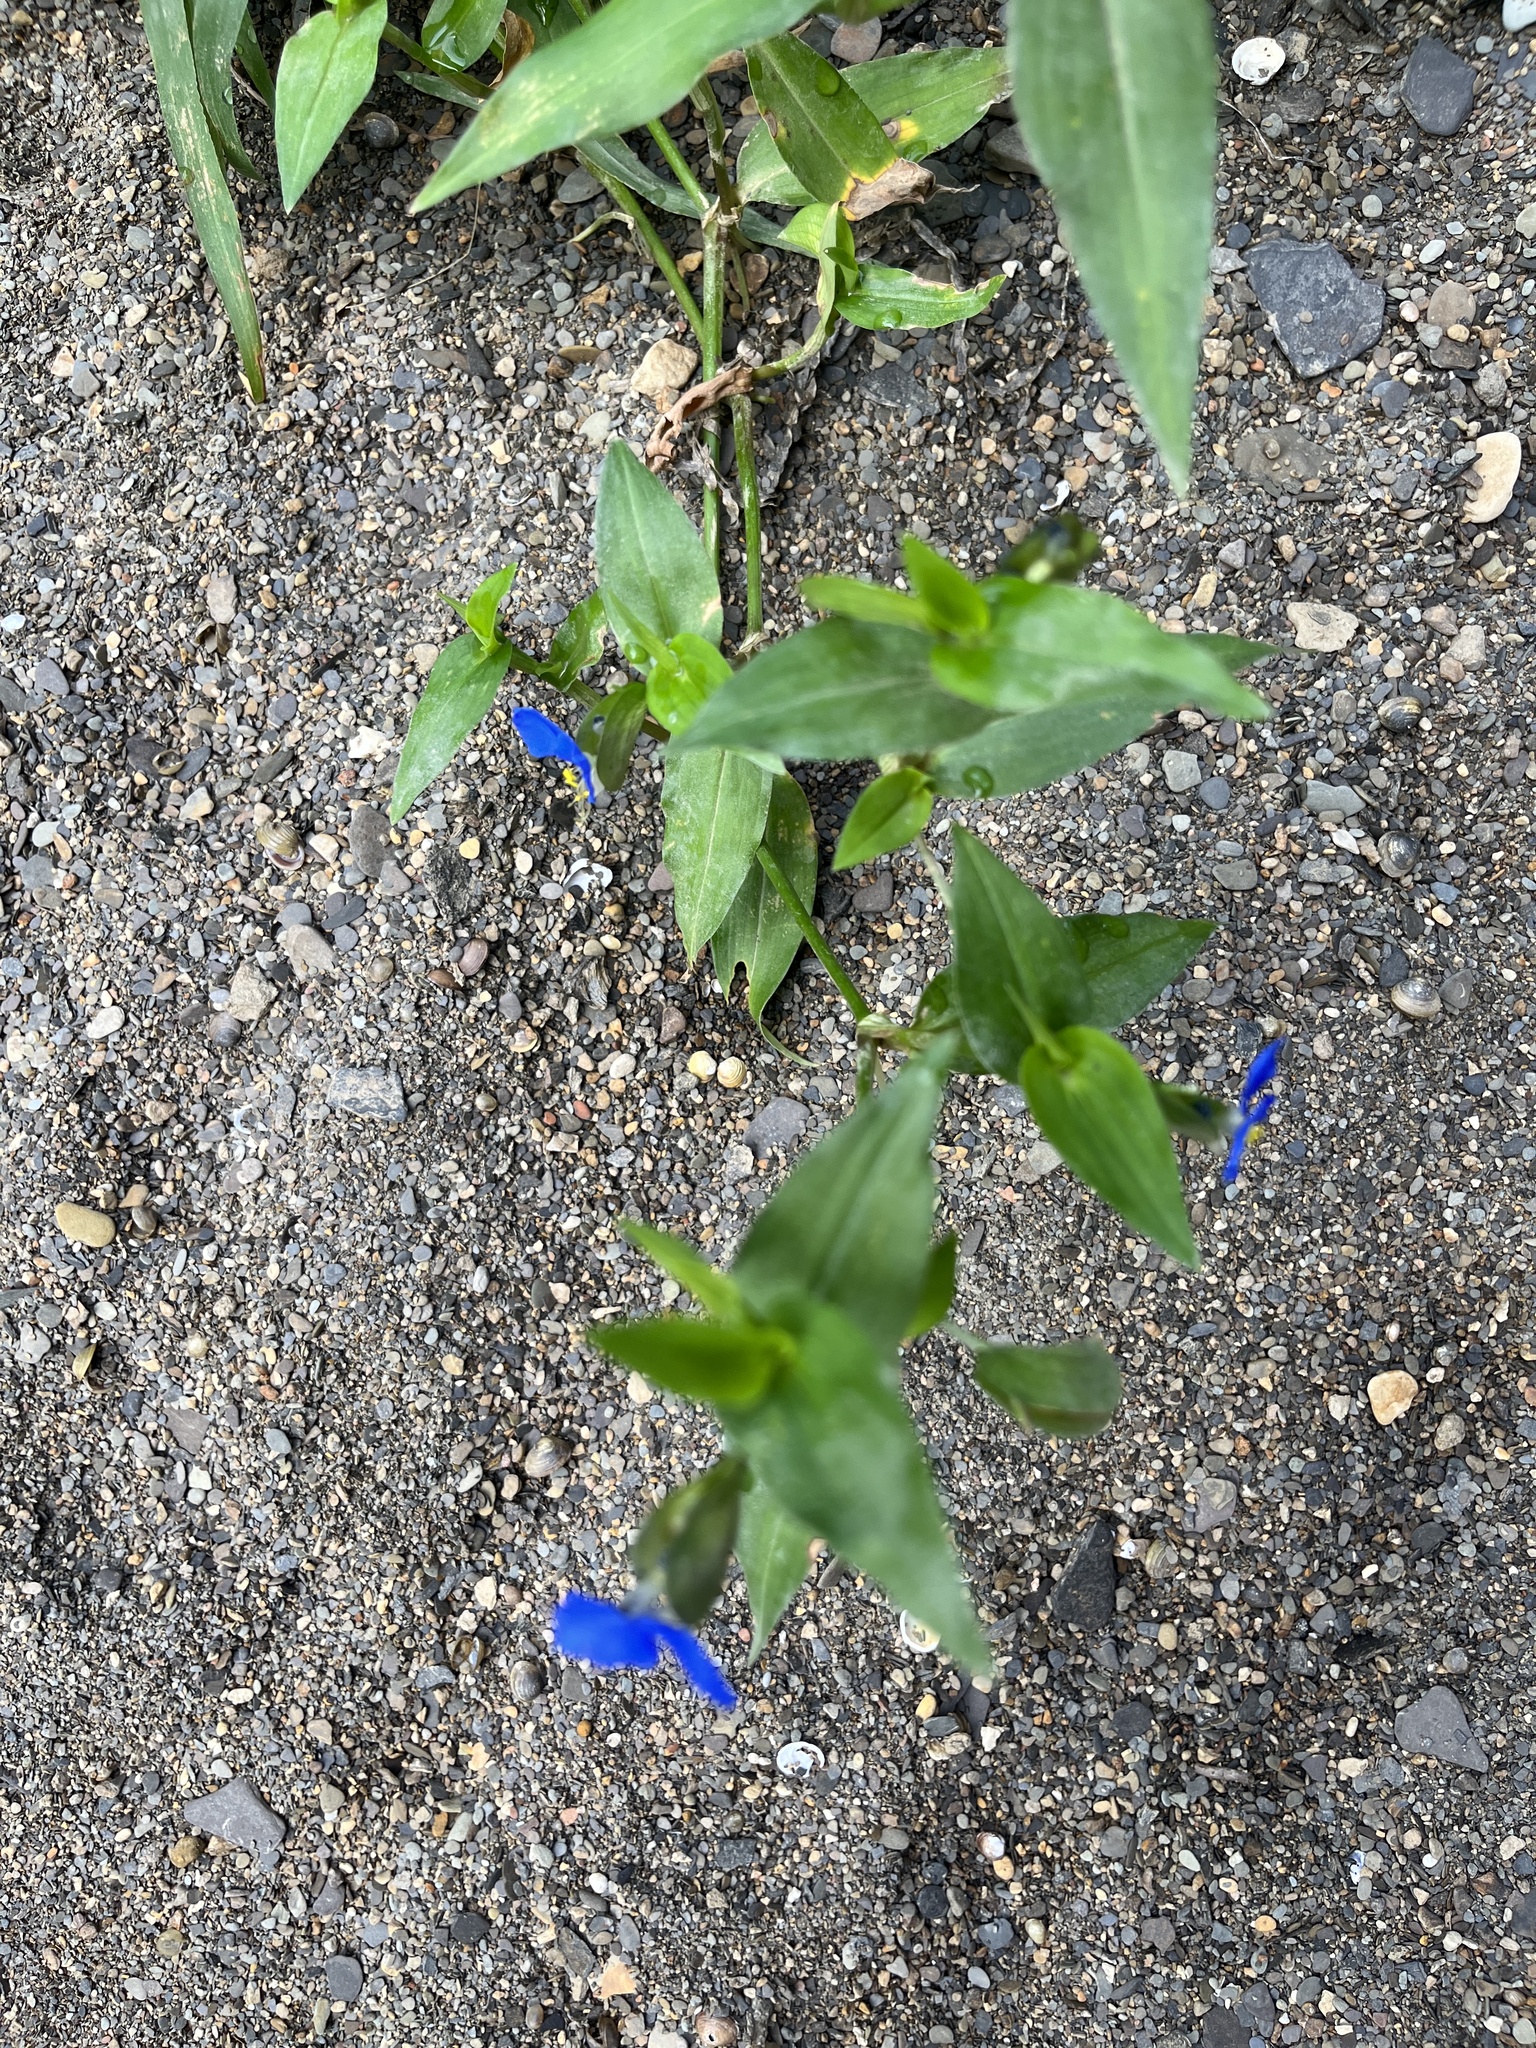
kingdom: Plantae
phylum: Tracheophyta
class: Liliopsida
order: Commelinales
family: Commelinaceae
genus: Commelina
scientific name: Commelina communis
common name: Asiatic dayflower
